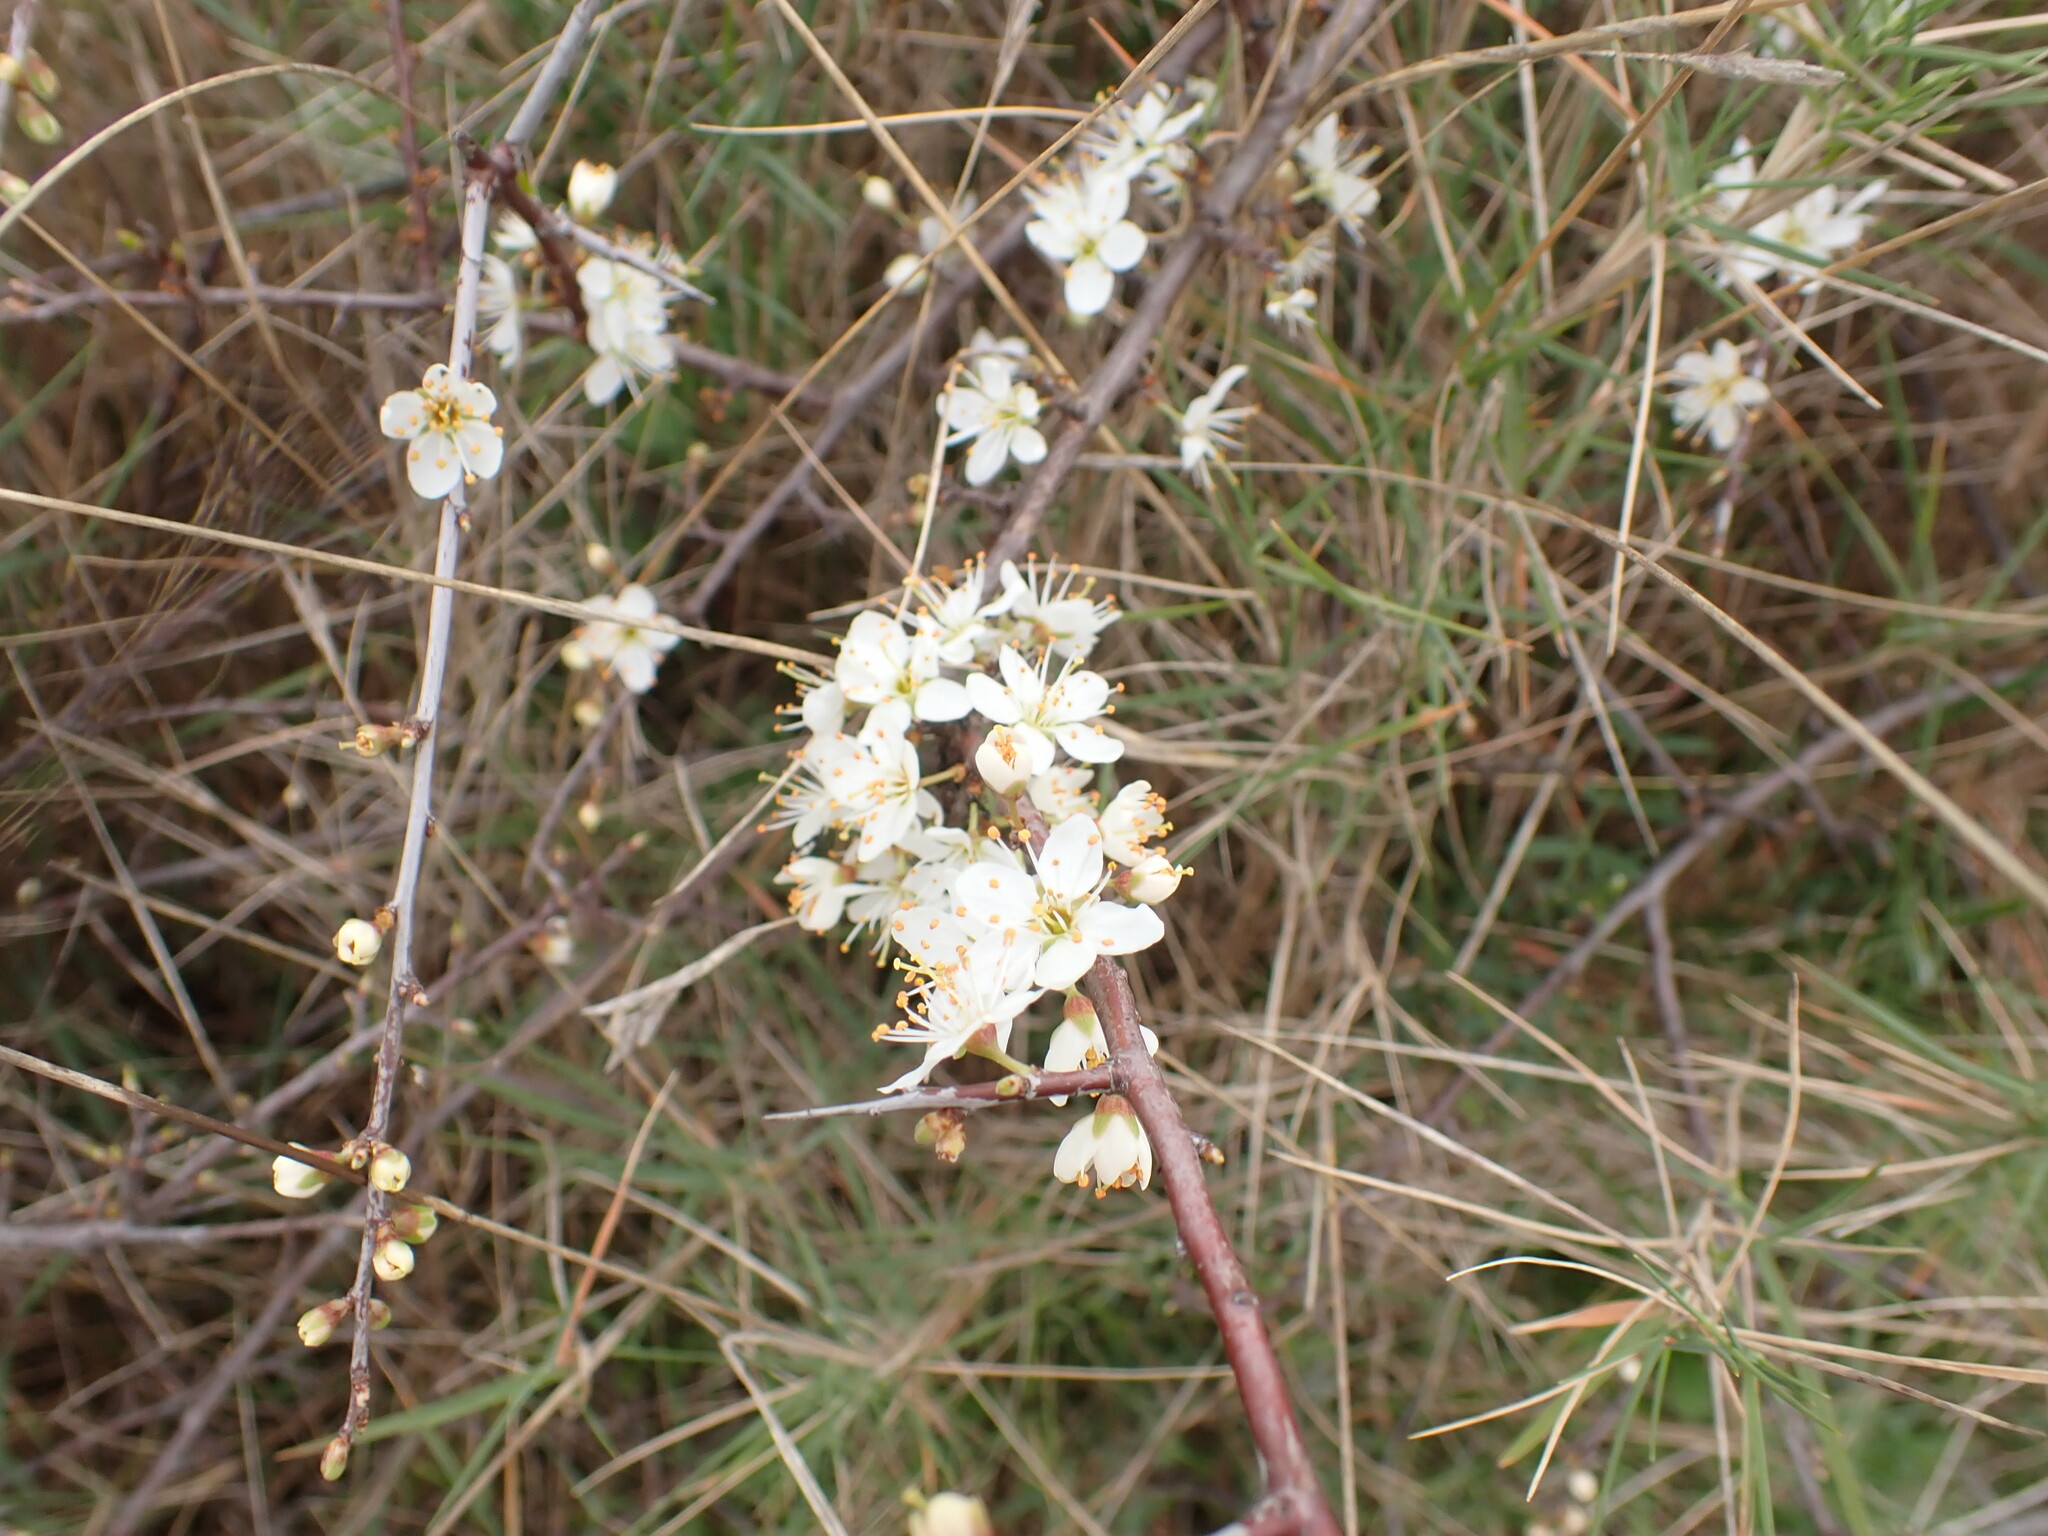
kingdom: Plantae
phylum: Tracheophyta
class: Magnoliopsida
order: Rosales
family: Rosaceae
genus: Prunus
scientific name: Prunus spinosa
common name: Blackthorn
